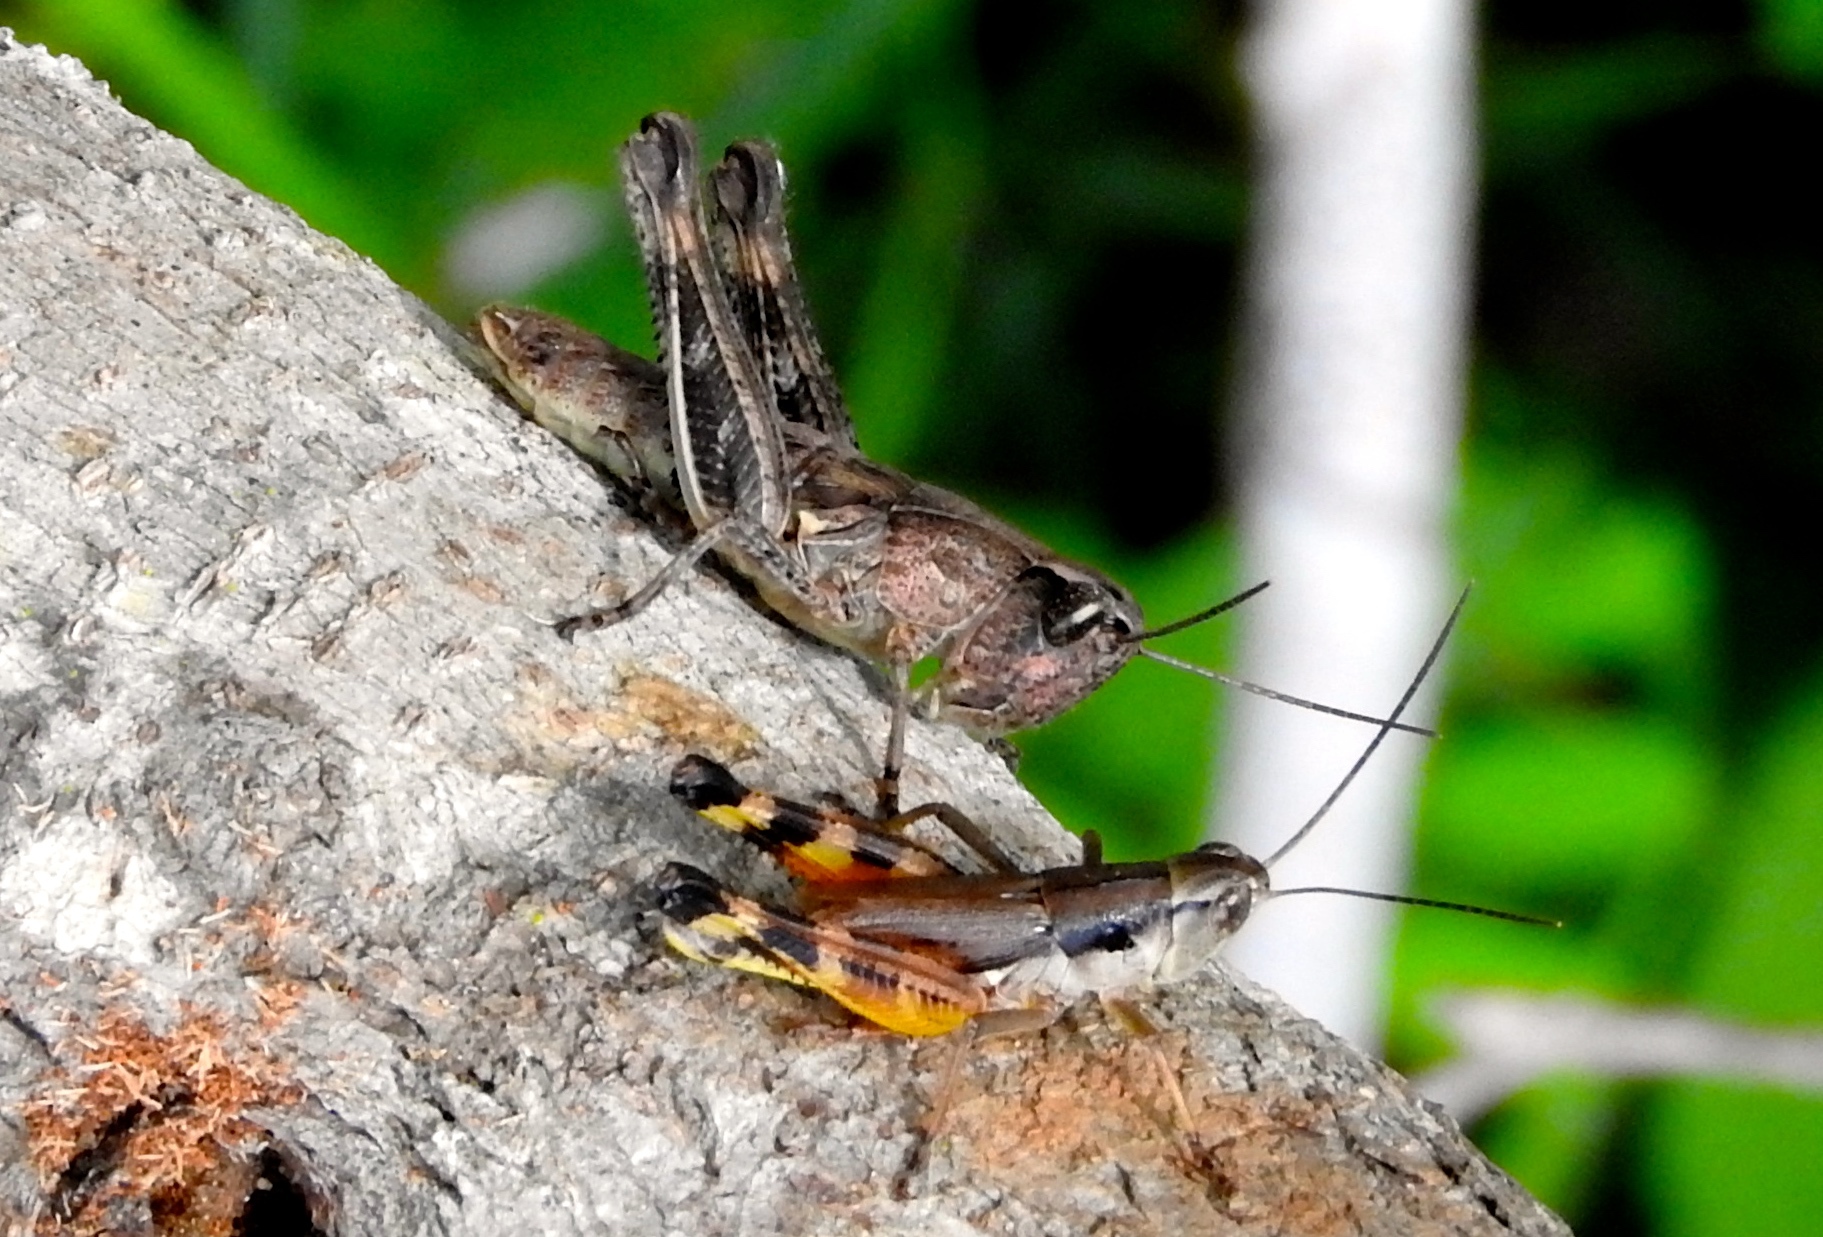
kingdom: Animalia
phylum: Arthropoda
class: Insecta
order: Orthoptera
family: Acrididae
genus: Boopedon
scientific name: Boopedon flaviventris
